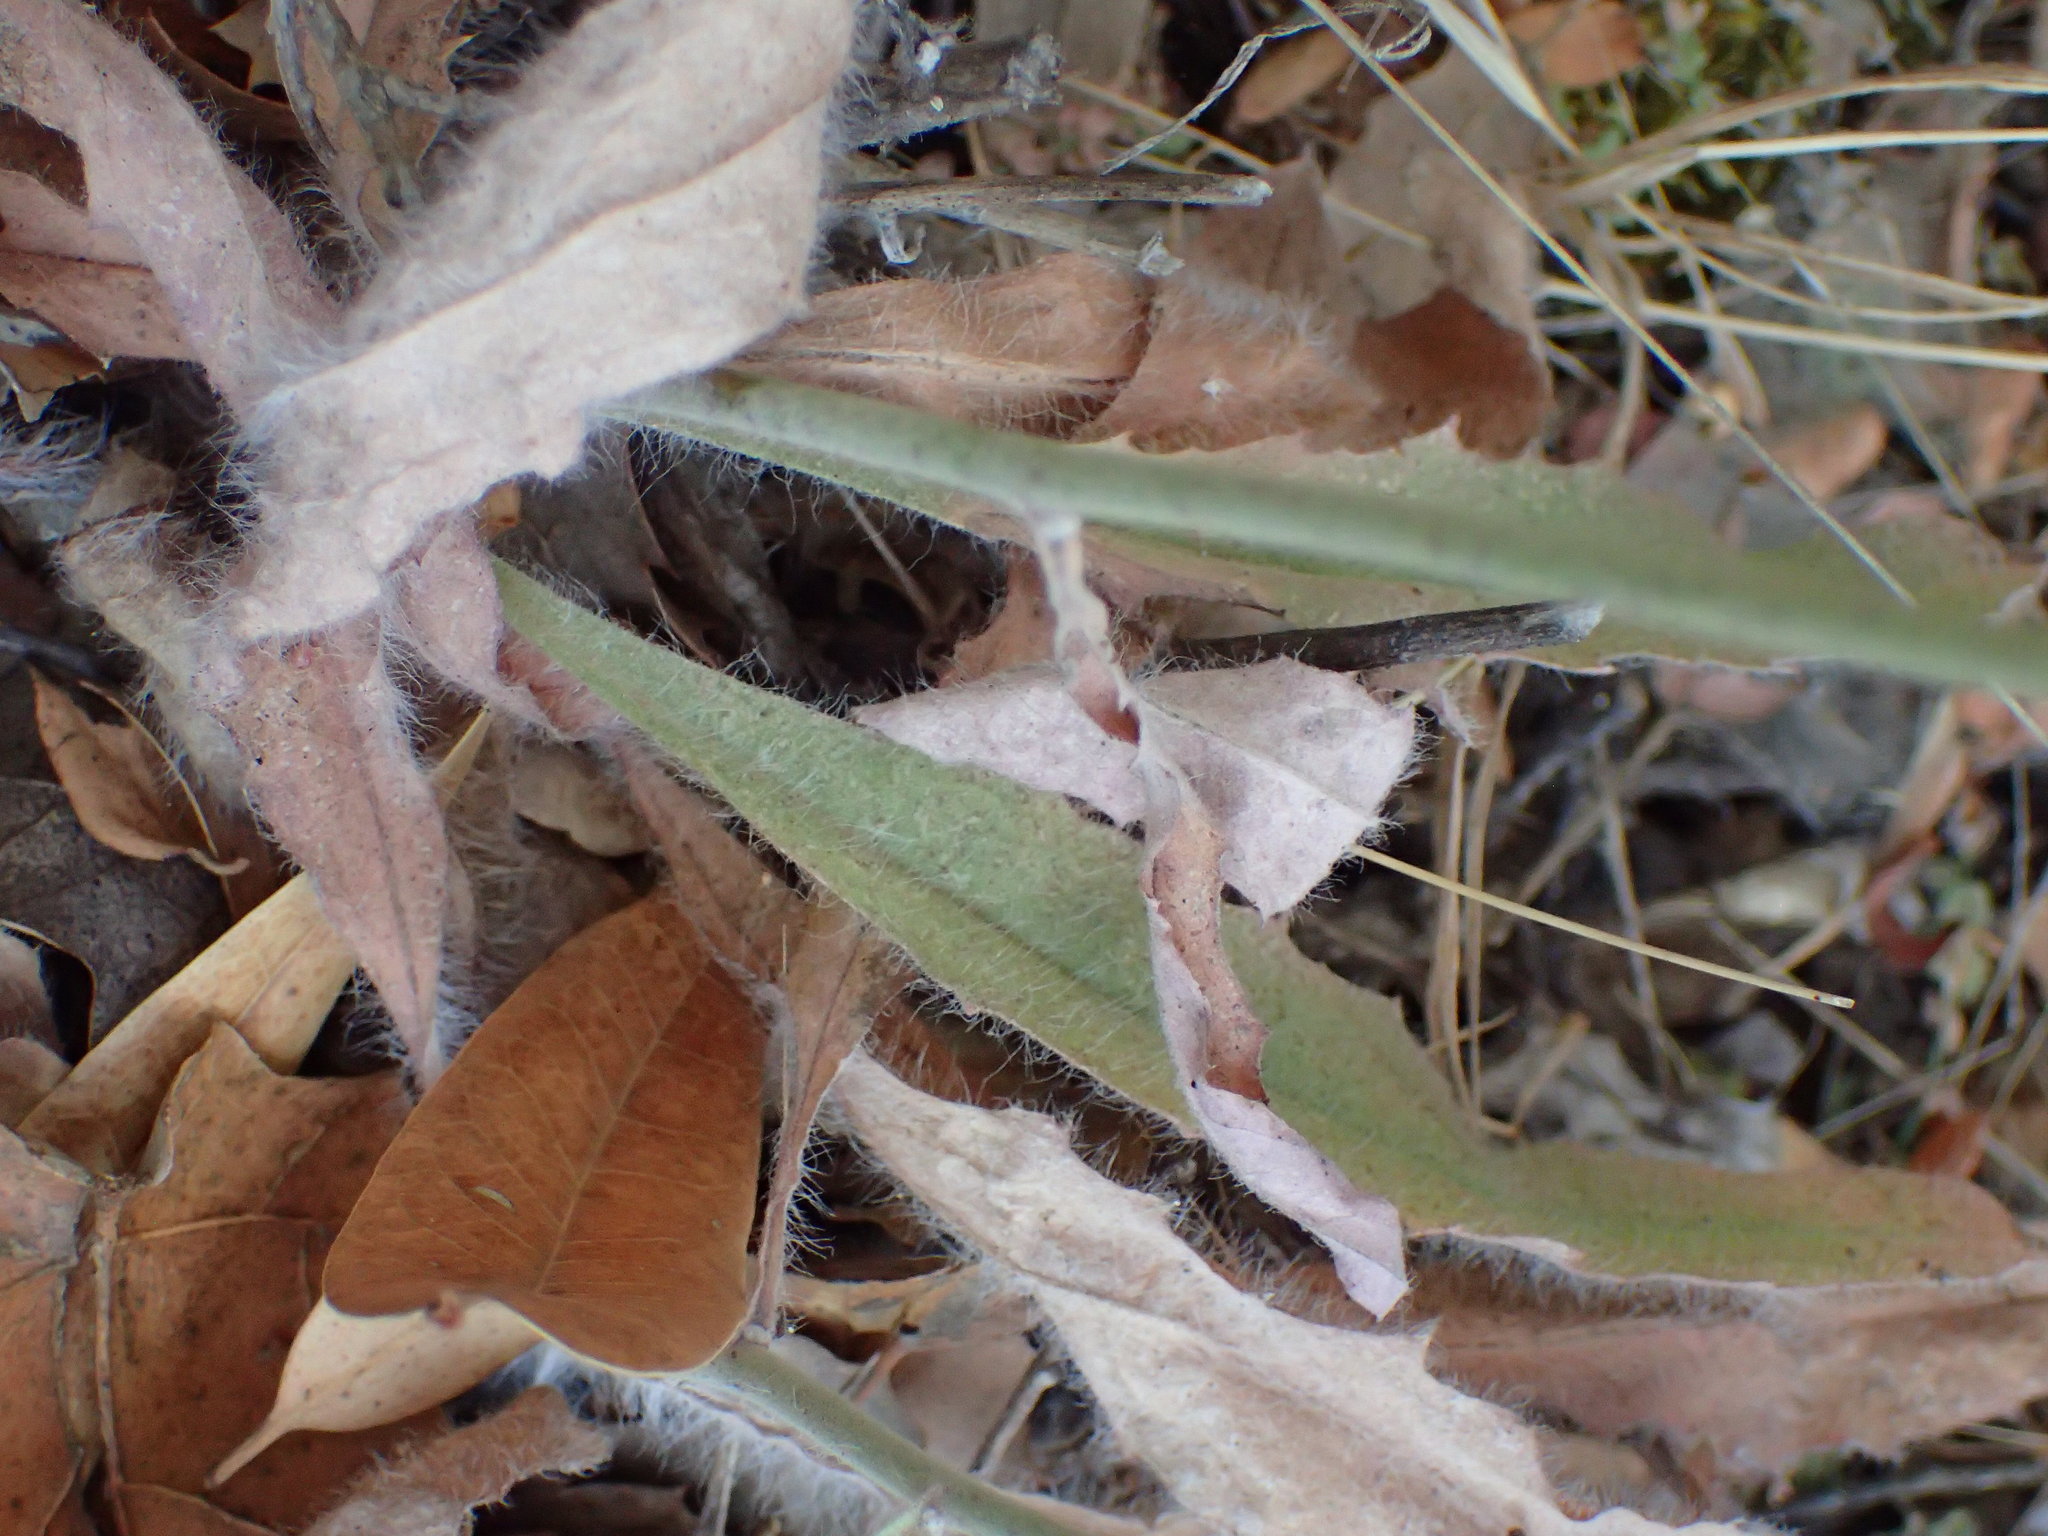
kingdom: Plantae
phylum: Tracheophyta
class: Magnoliopsida
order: Asterales
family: Asteraceae
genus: Hieracium
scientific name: Hieracium argutum
